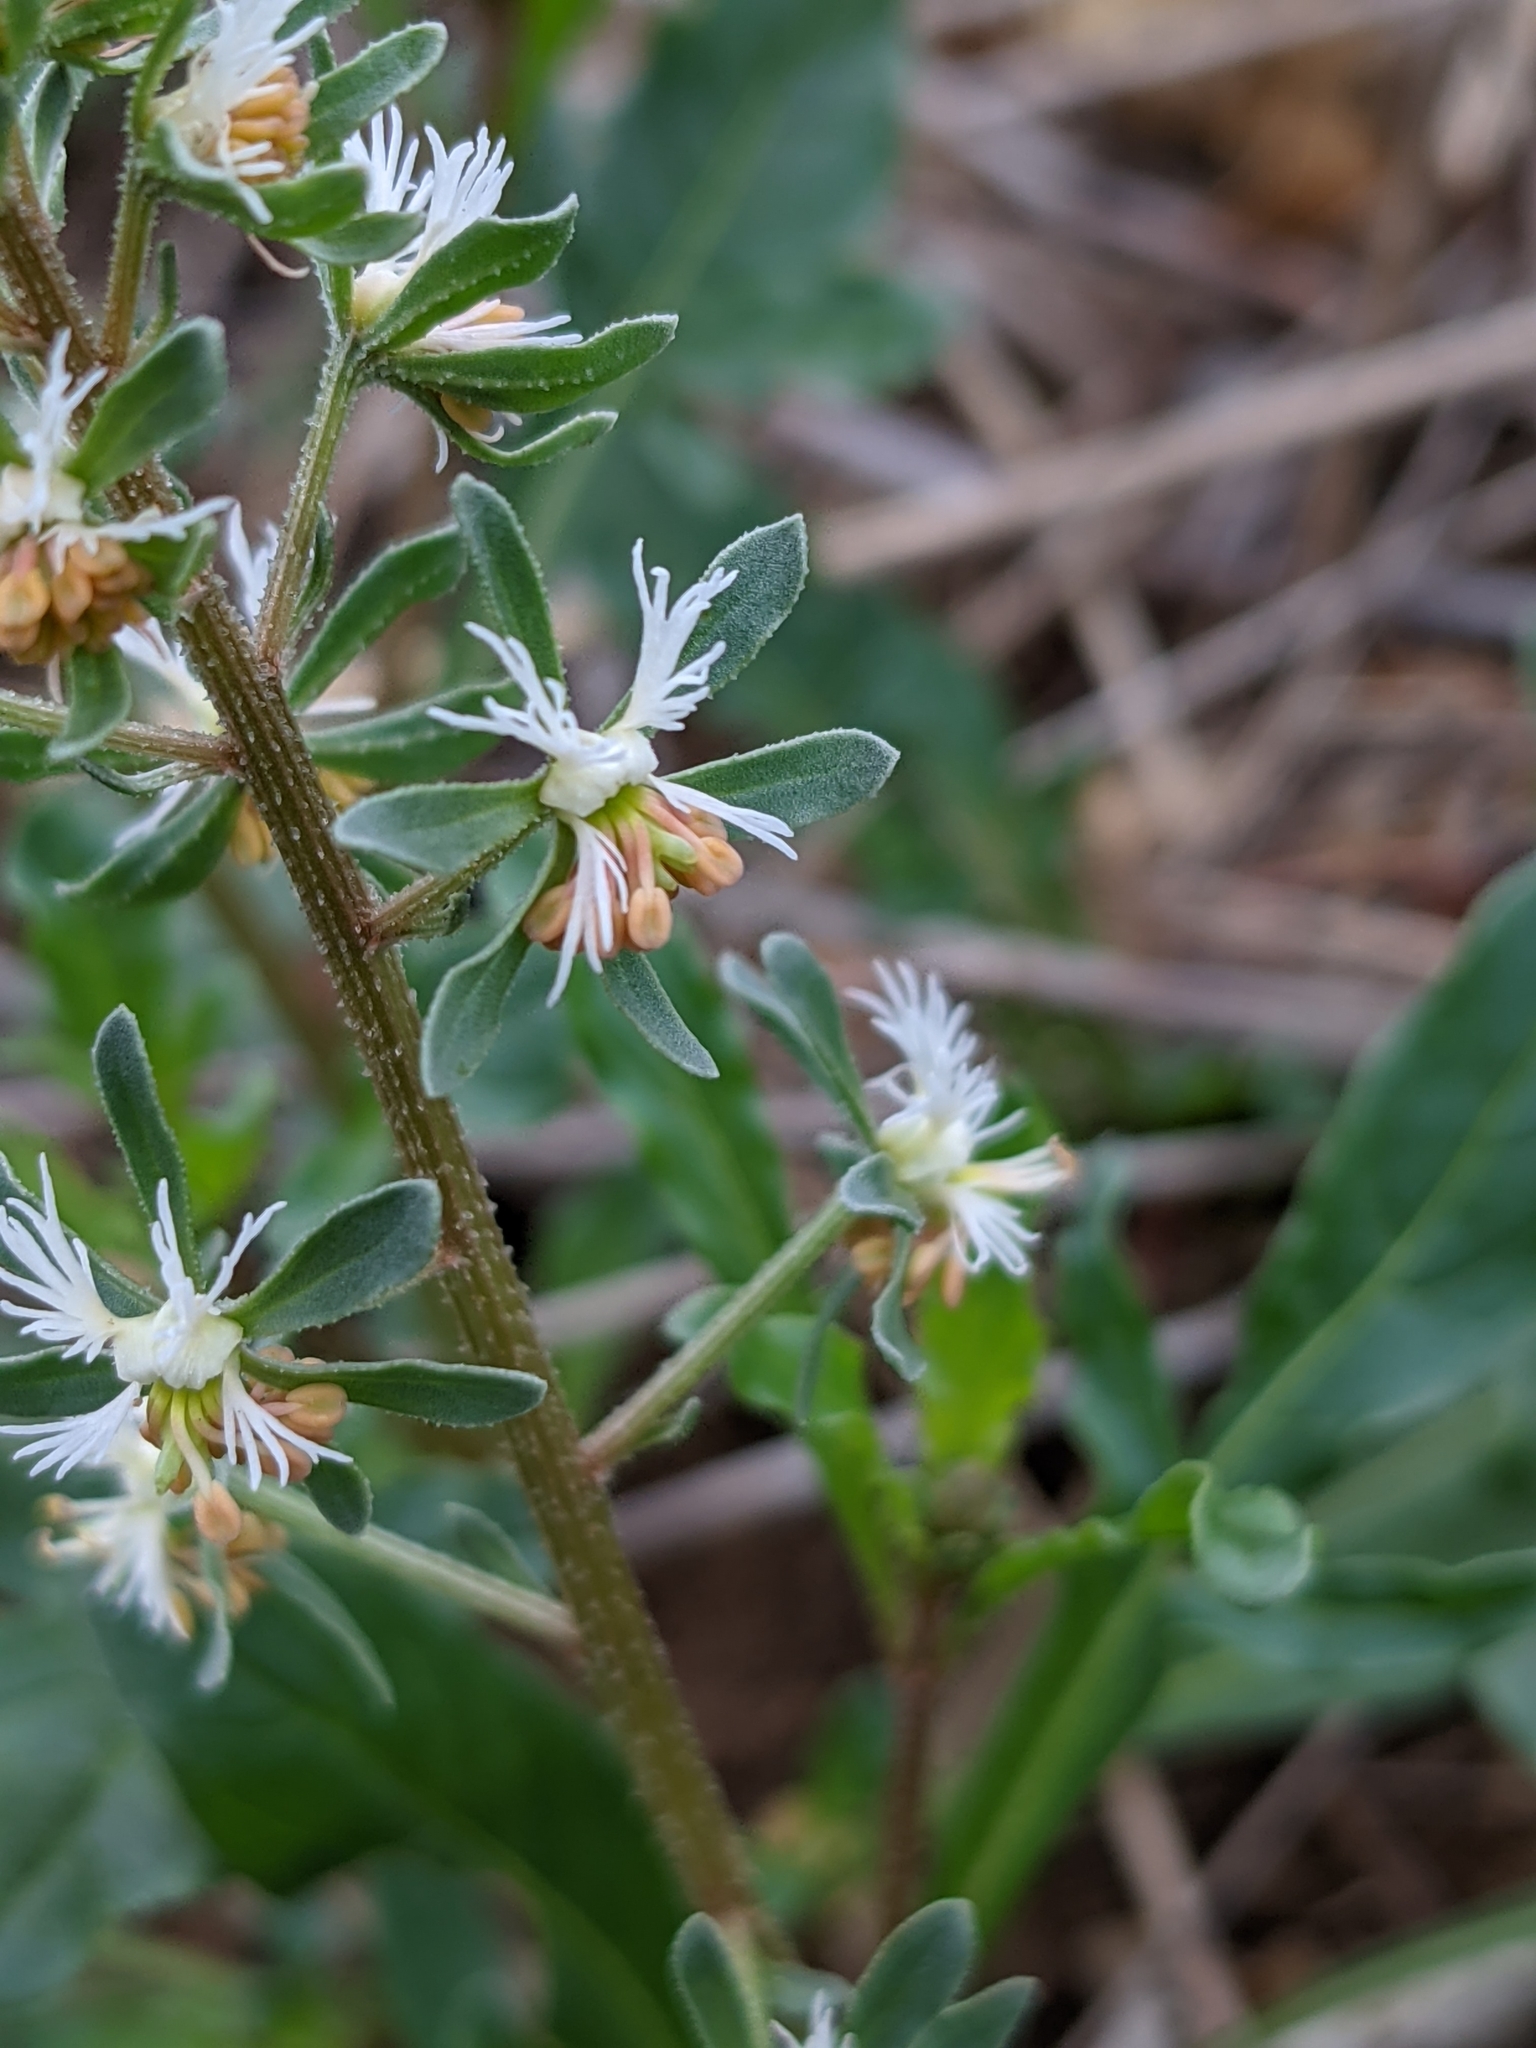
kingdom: Plantae
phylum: Tracheophyta
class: Magnoliopsida
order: Brassicales
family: Resedaceae
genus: Reseda
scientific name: Reseda phyteuma
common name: Corn mignonette
